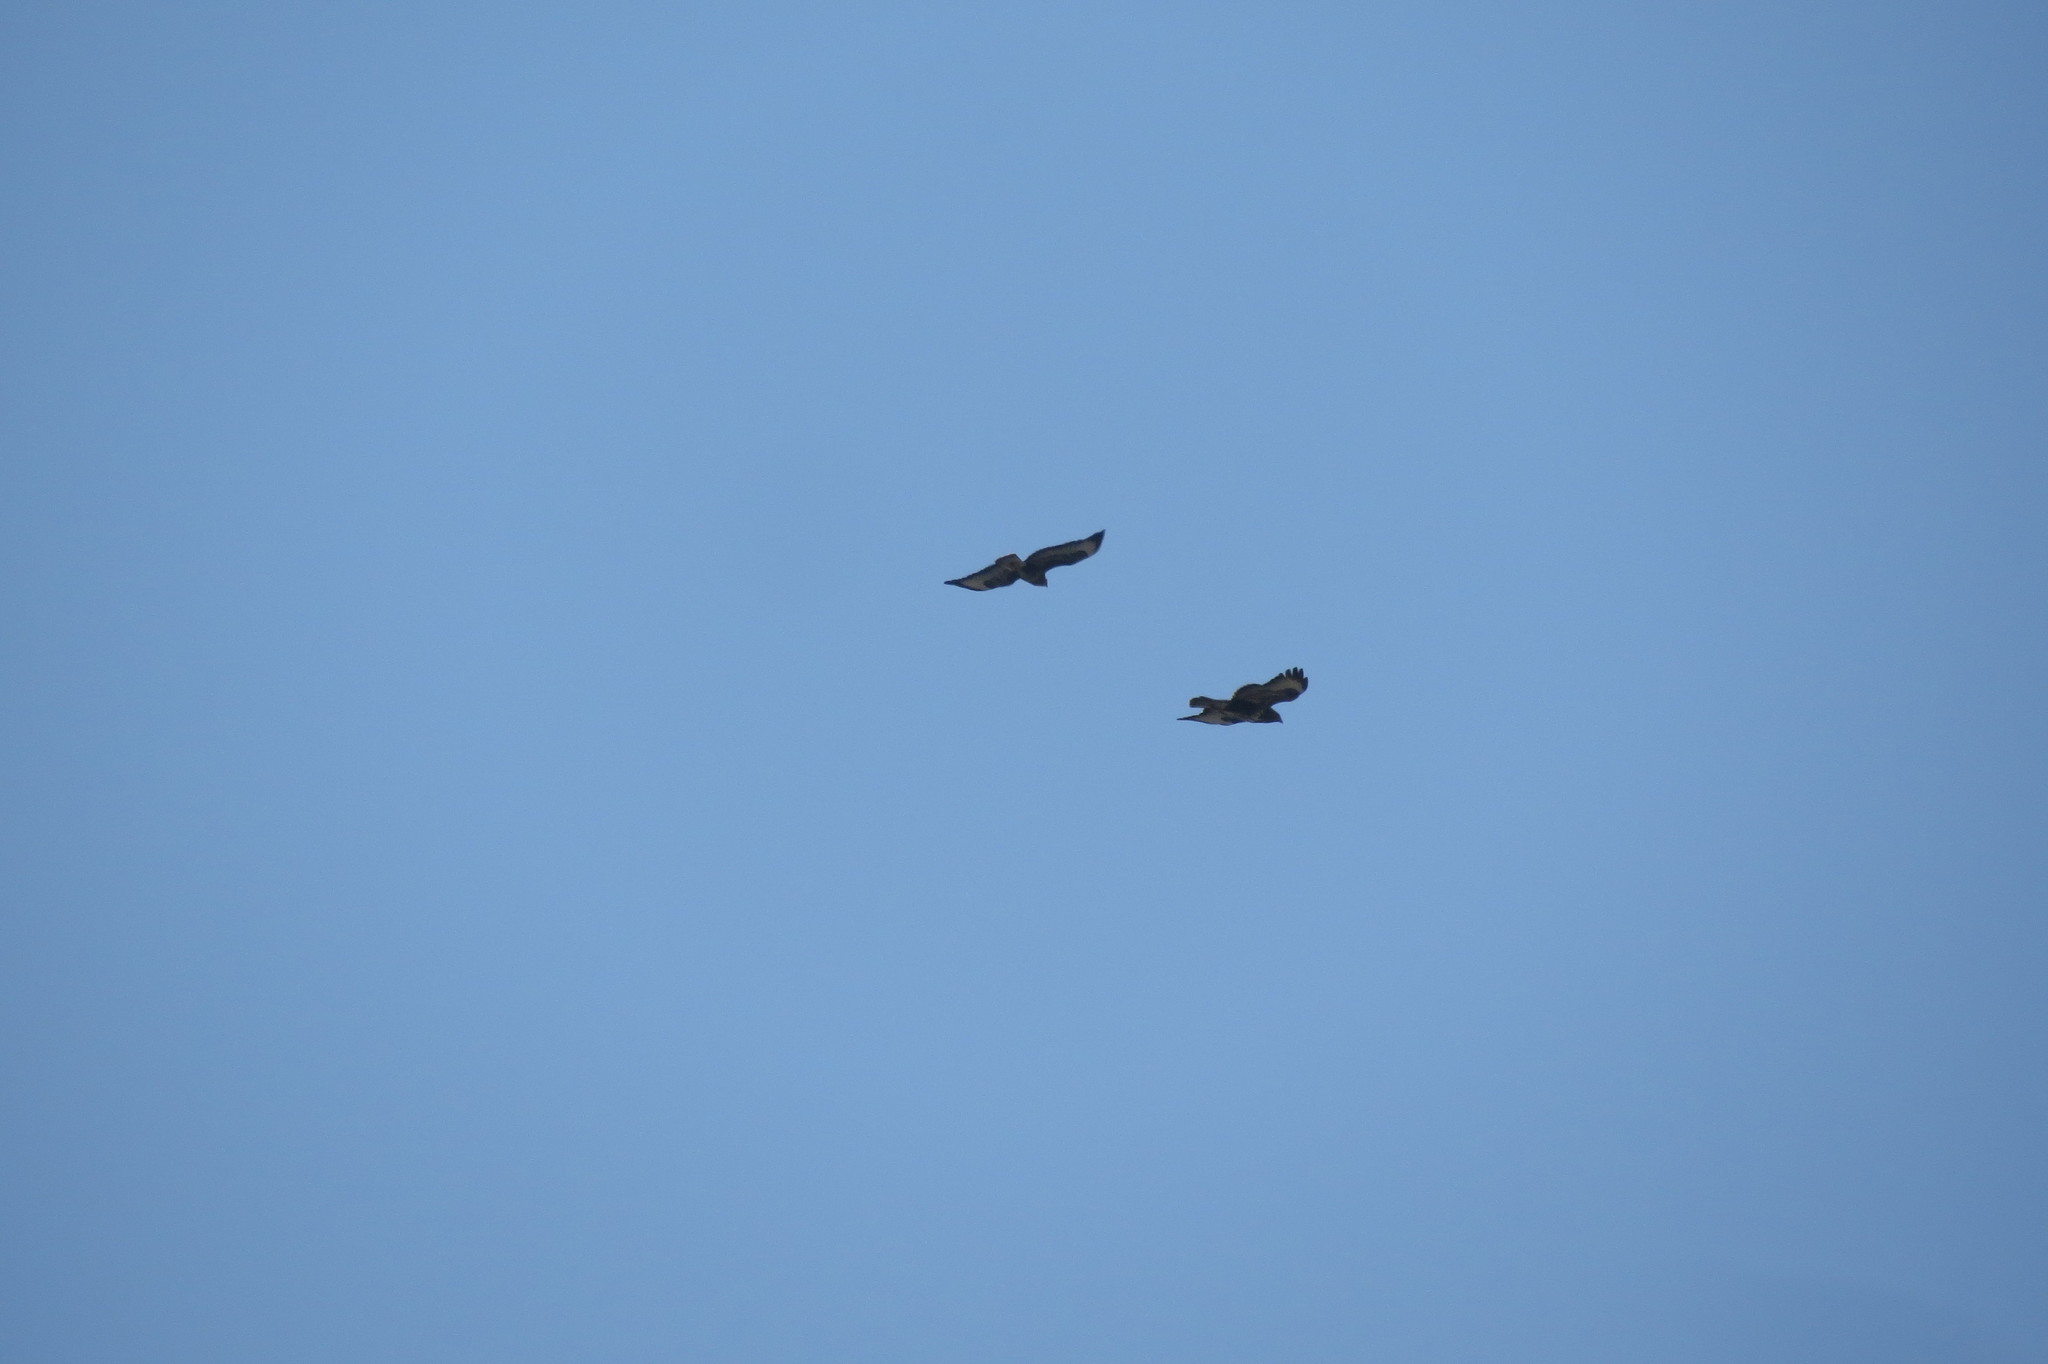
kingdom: Animalia
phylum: Chordata
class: Aves
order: Accipitriformes
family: Accipitridae
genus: Buteo
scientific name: Buteo buteo
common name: Common buzzard
